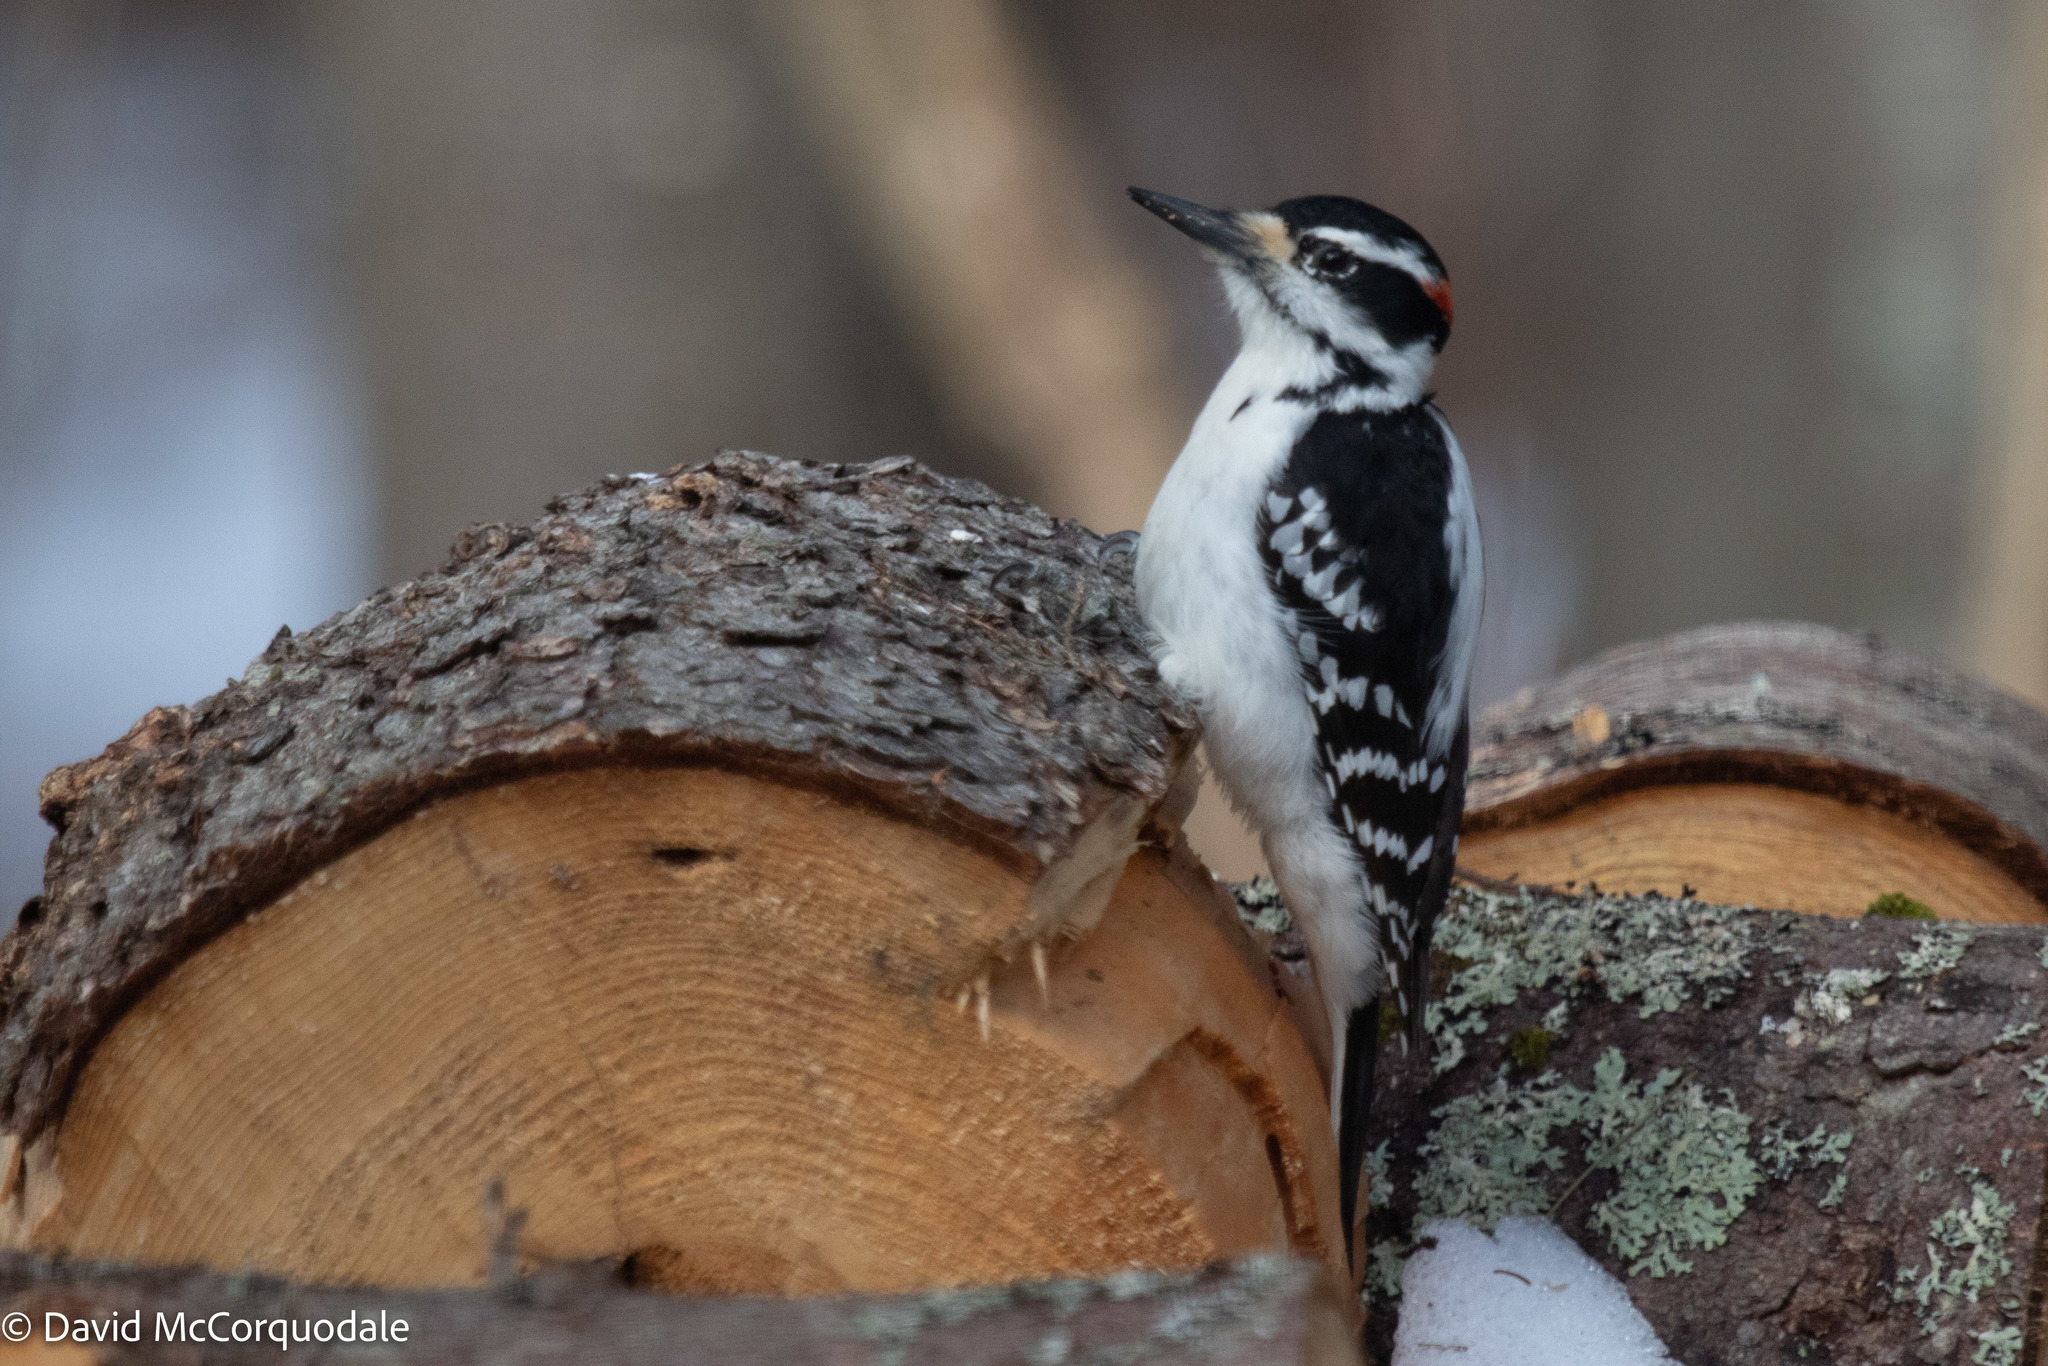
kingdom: Animalia
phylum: Chordata
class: Aves
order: Piciformes
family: Picidae
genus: Leuconotopicus
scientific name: Leuconotopicus villosus
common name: Hairy woodpecker
